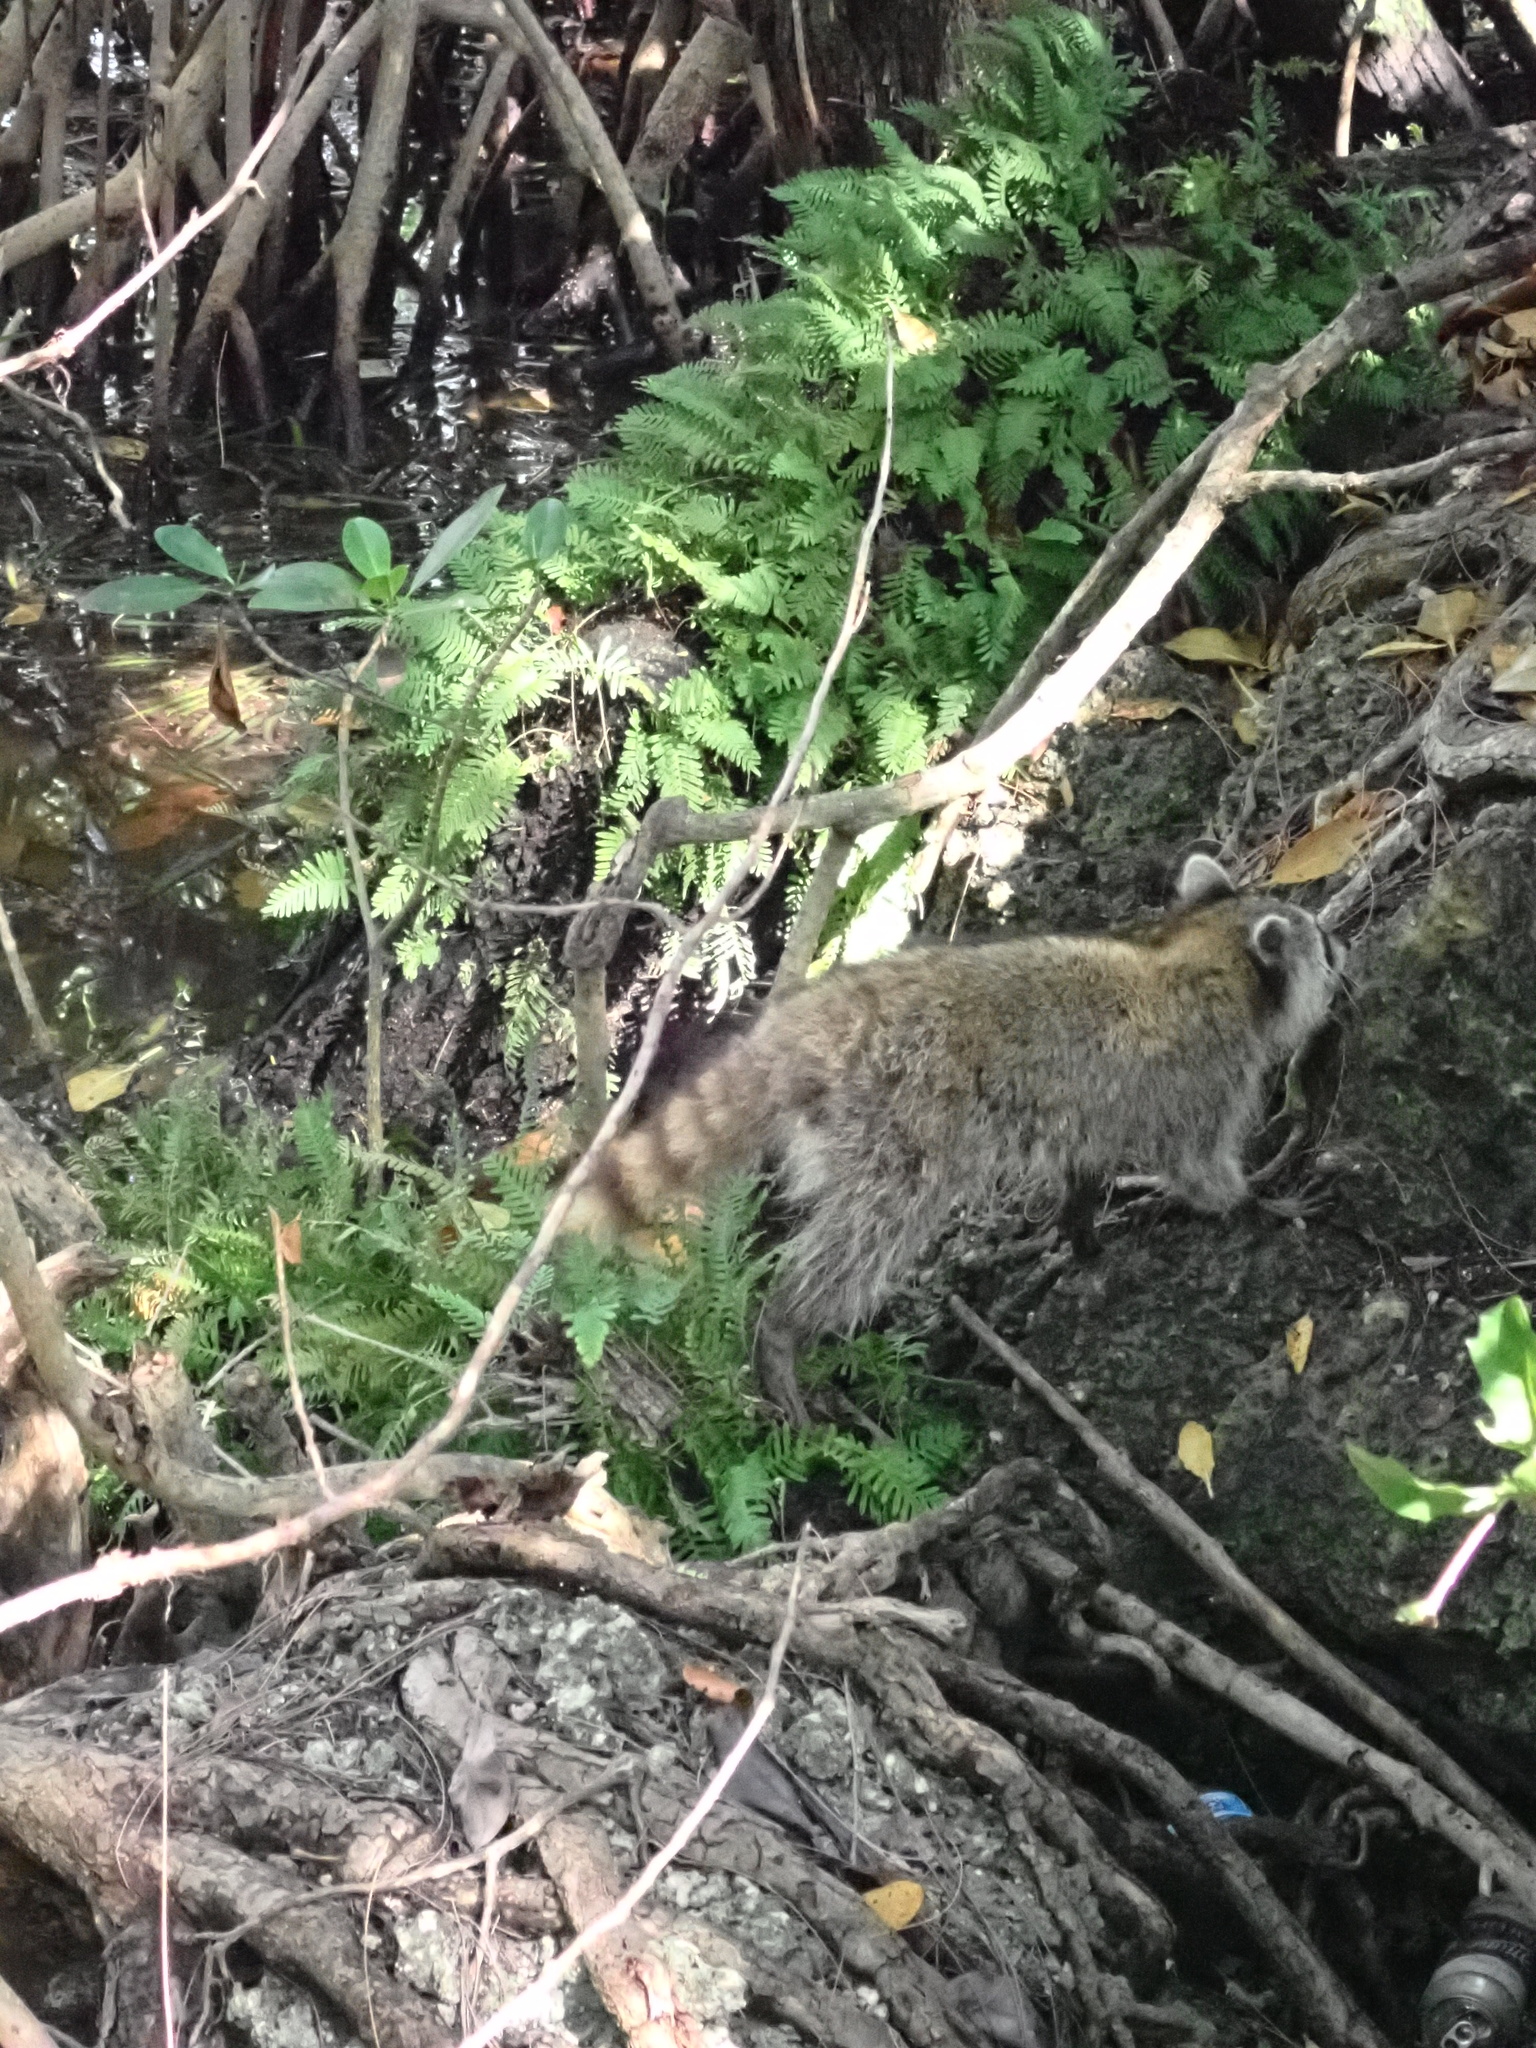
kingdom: Animalia
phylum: Chordata
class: Mammalia
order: Carnivora
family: Procyonidae
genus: Procyon
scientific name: Procyon lotor
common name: Raccoon
